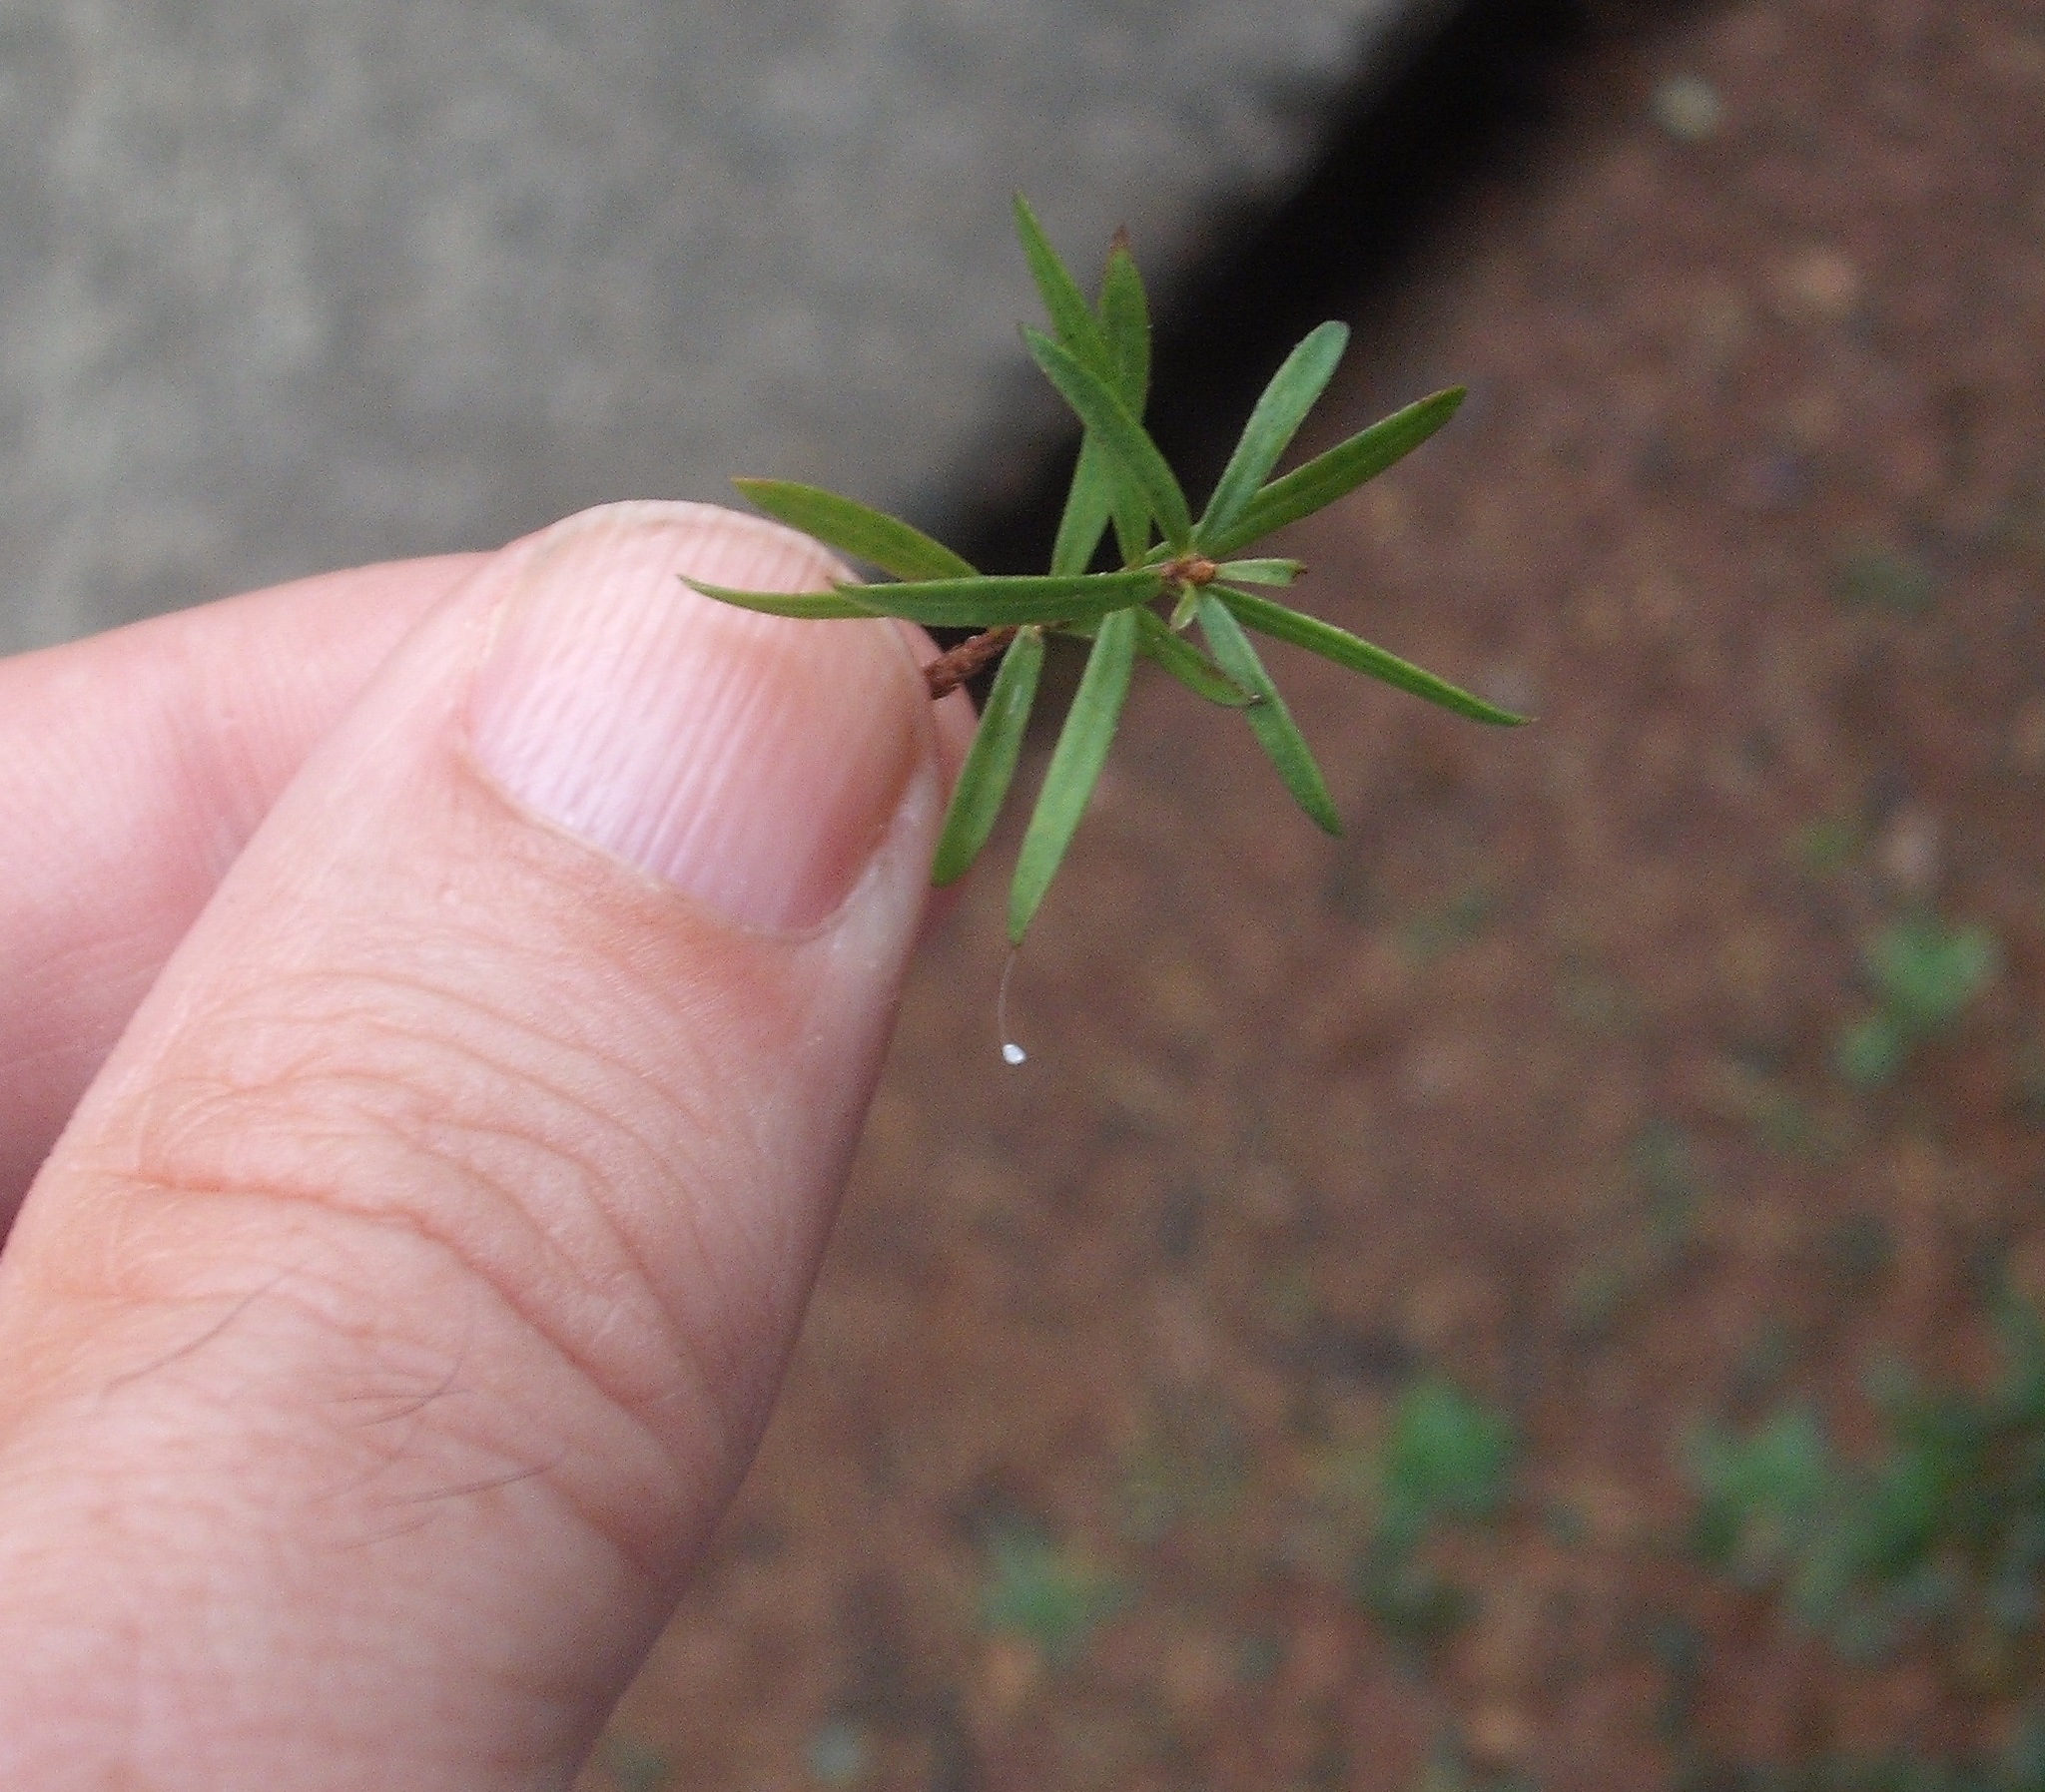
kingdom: Animalia
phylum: Arthropoda
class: Insecta
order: Neuroptera
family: Chrysopidae
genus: Mallada
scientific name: Mallada basalis
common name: Green lacewing
